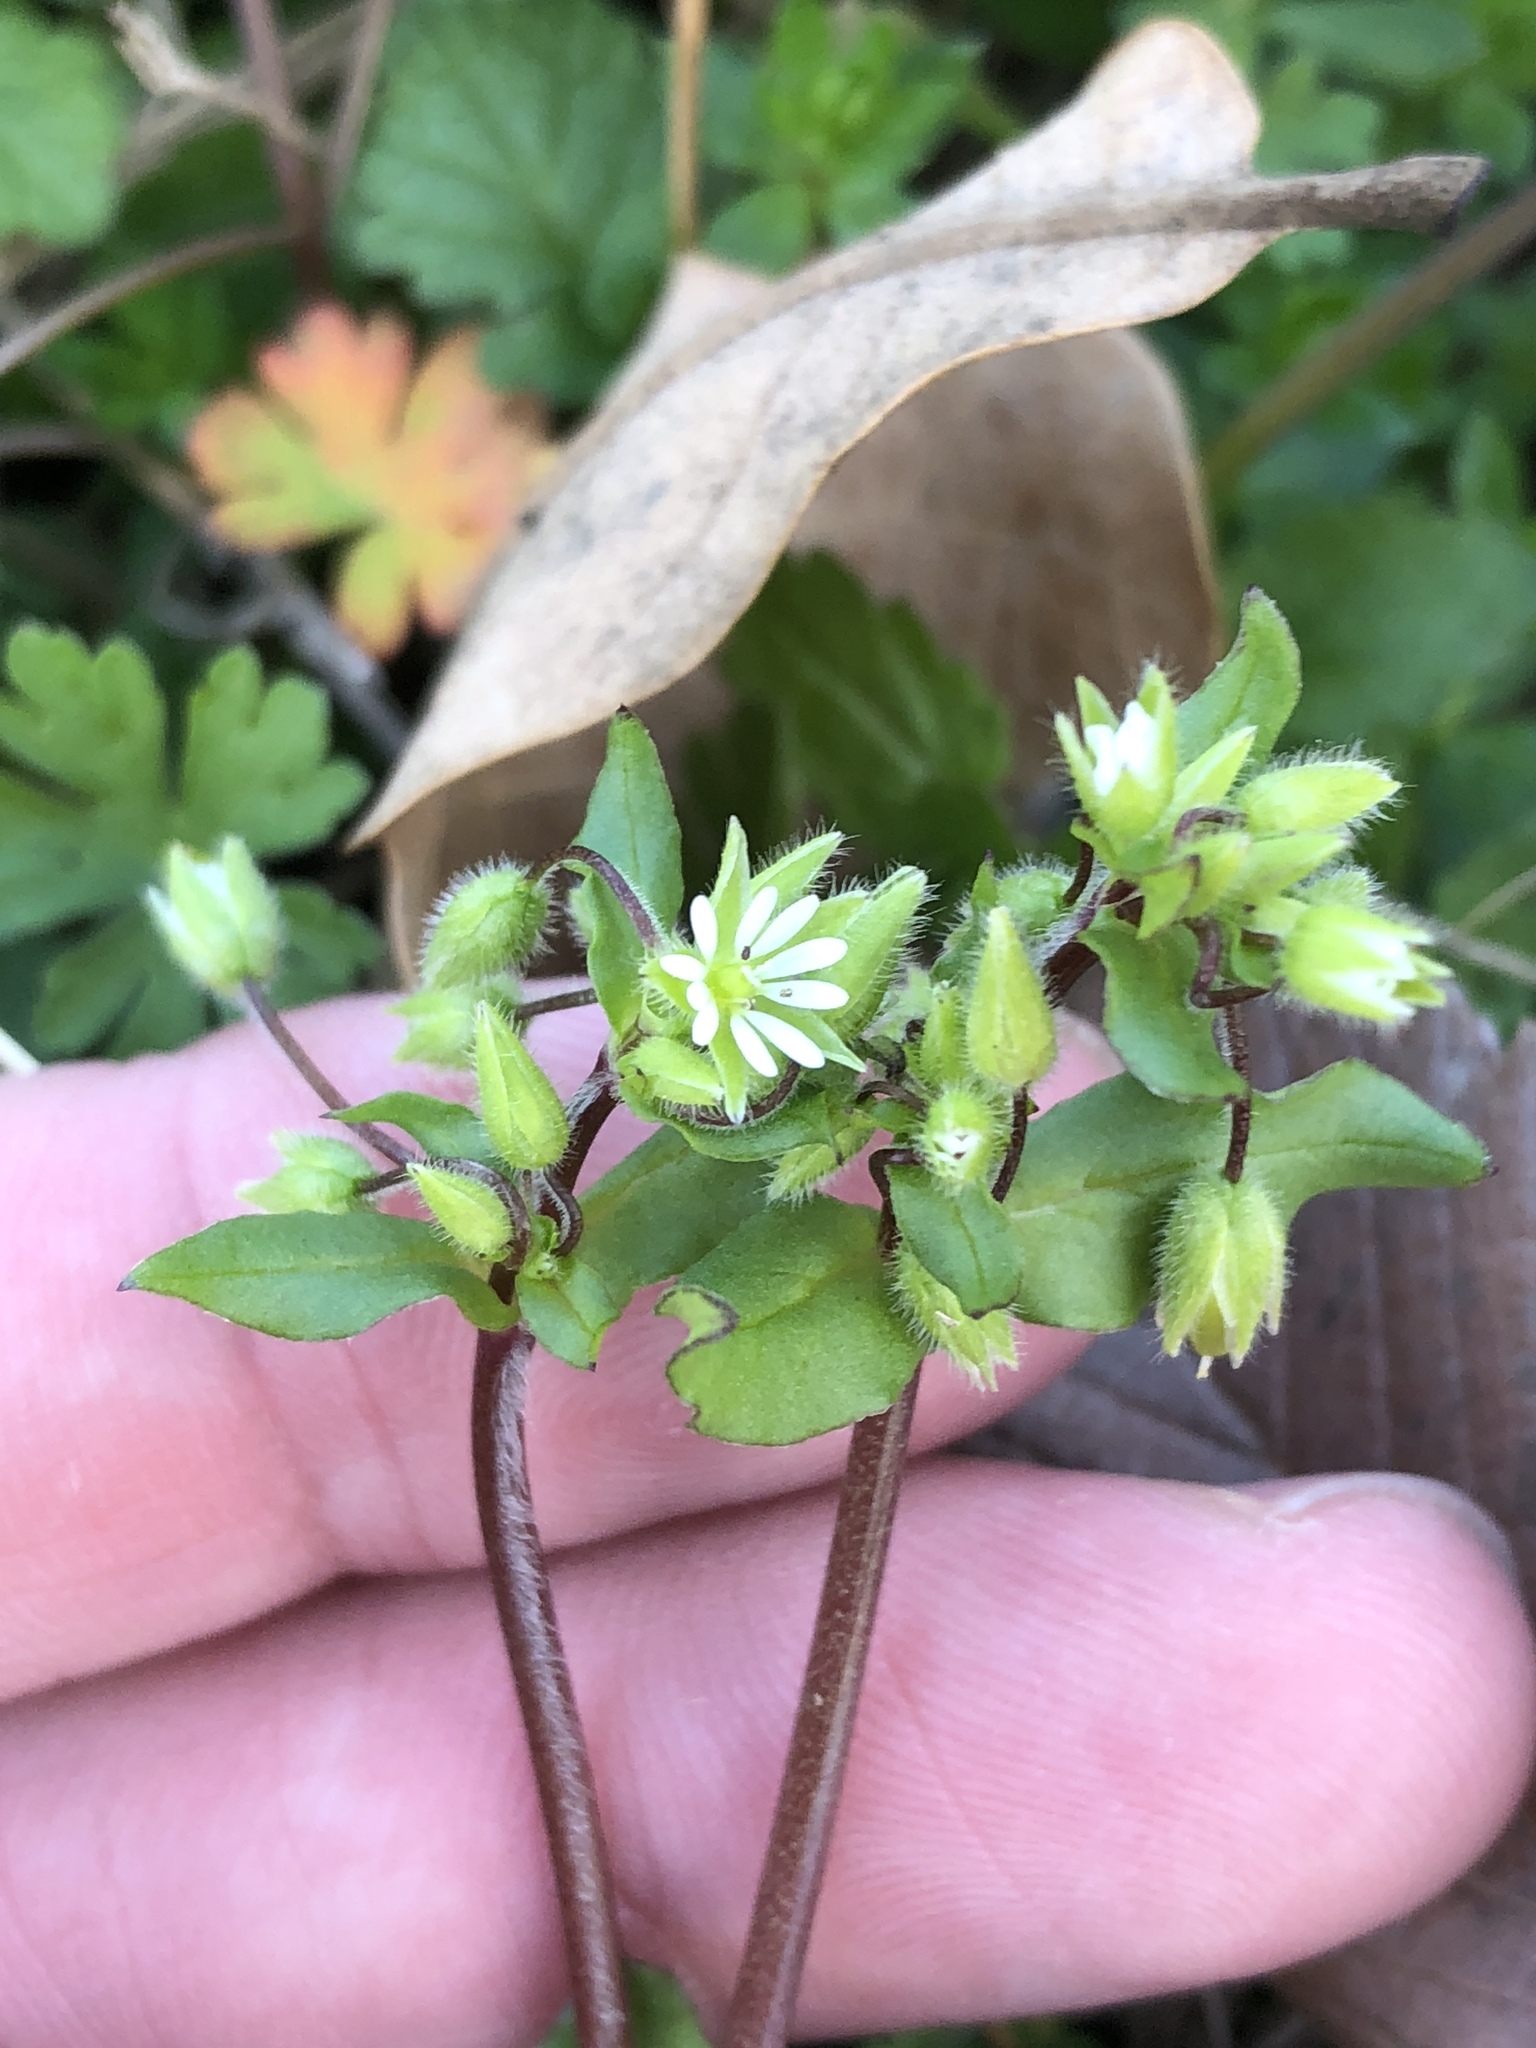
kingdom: Plantae
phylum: Tracheophyta
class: Magnoliopsida
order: Caryophyllales
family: Caryophyllaceae
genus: Stellaria
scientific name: Stellaria media
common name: Common chickweed
